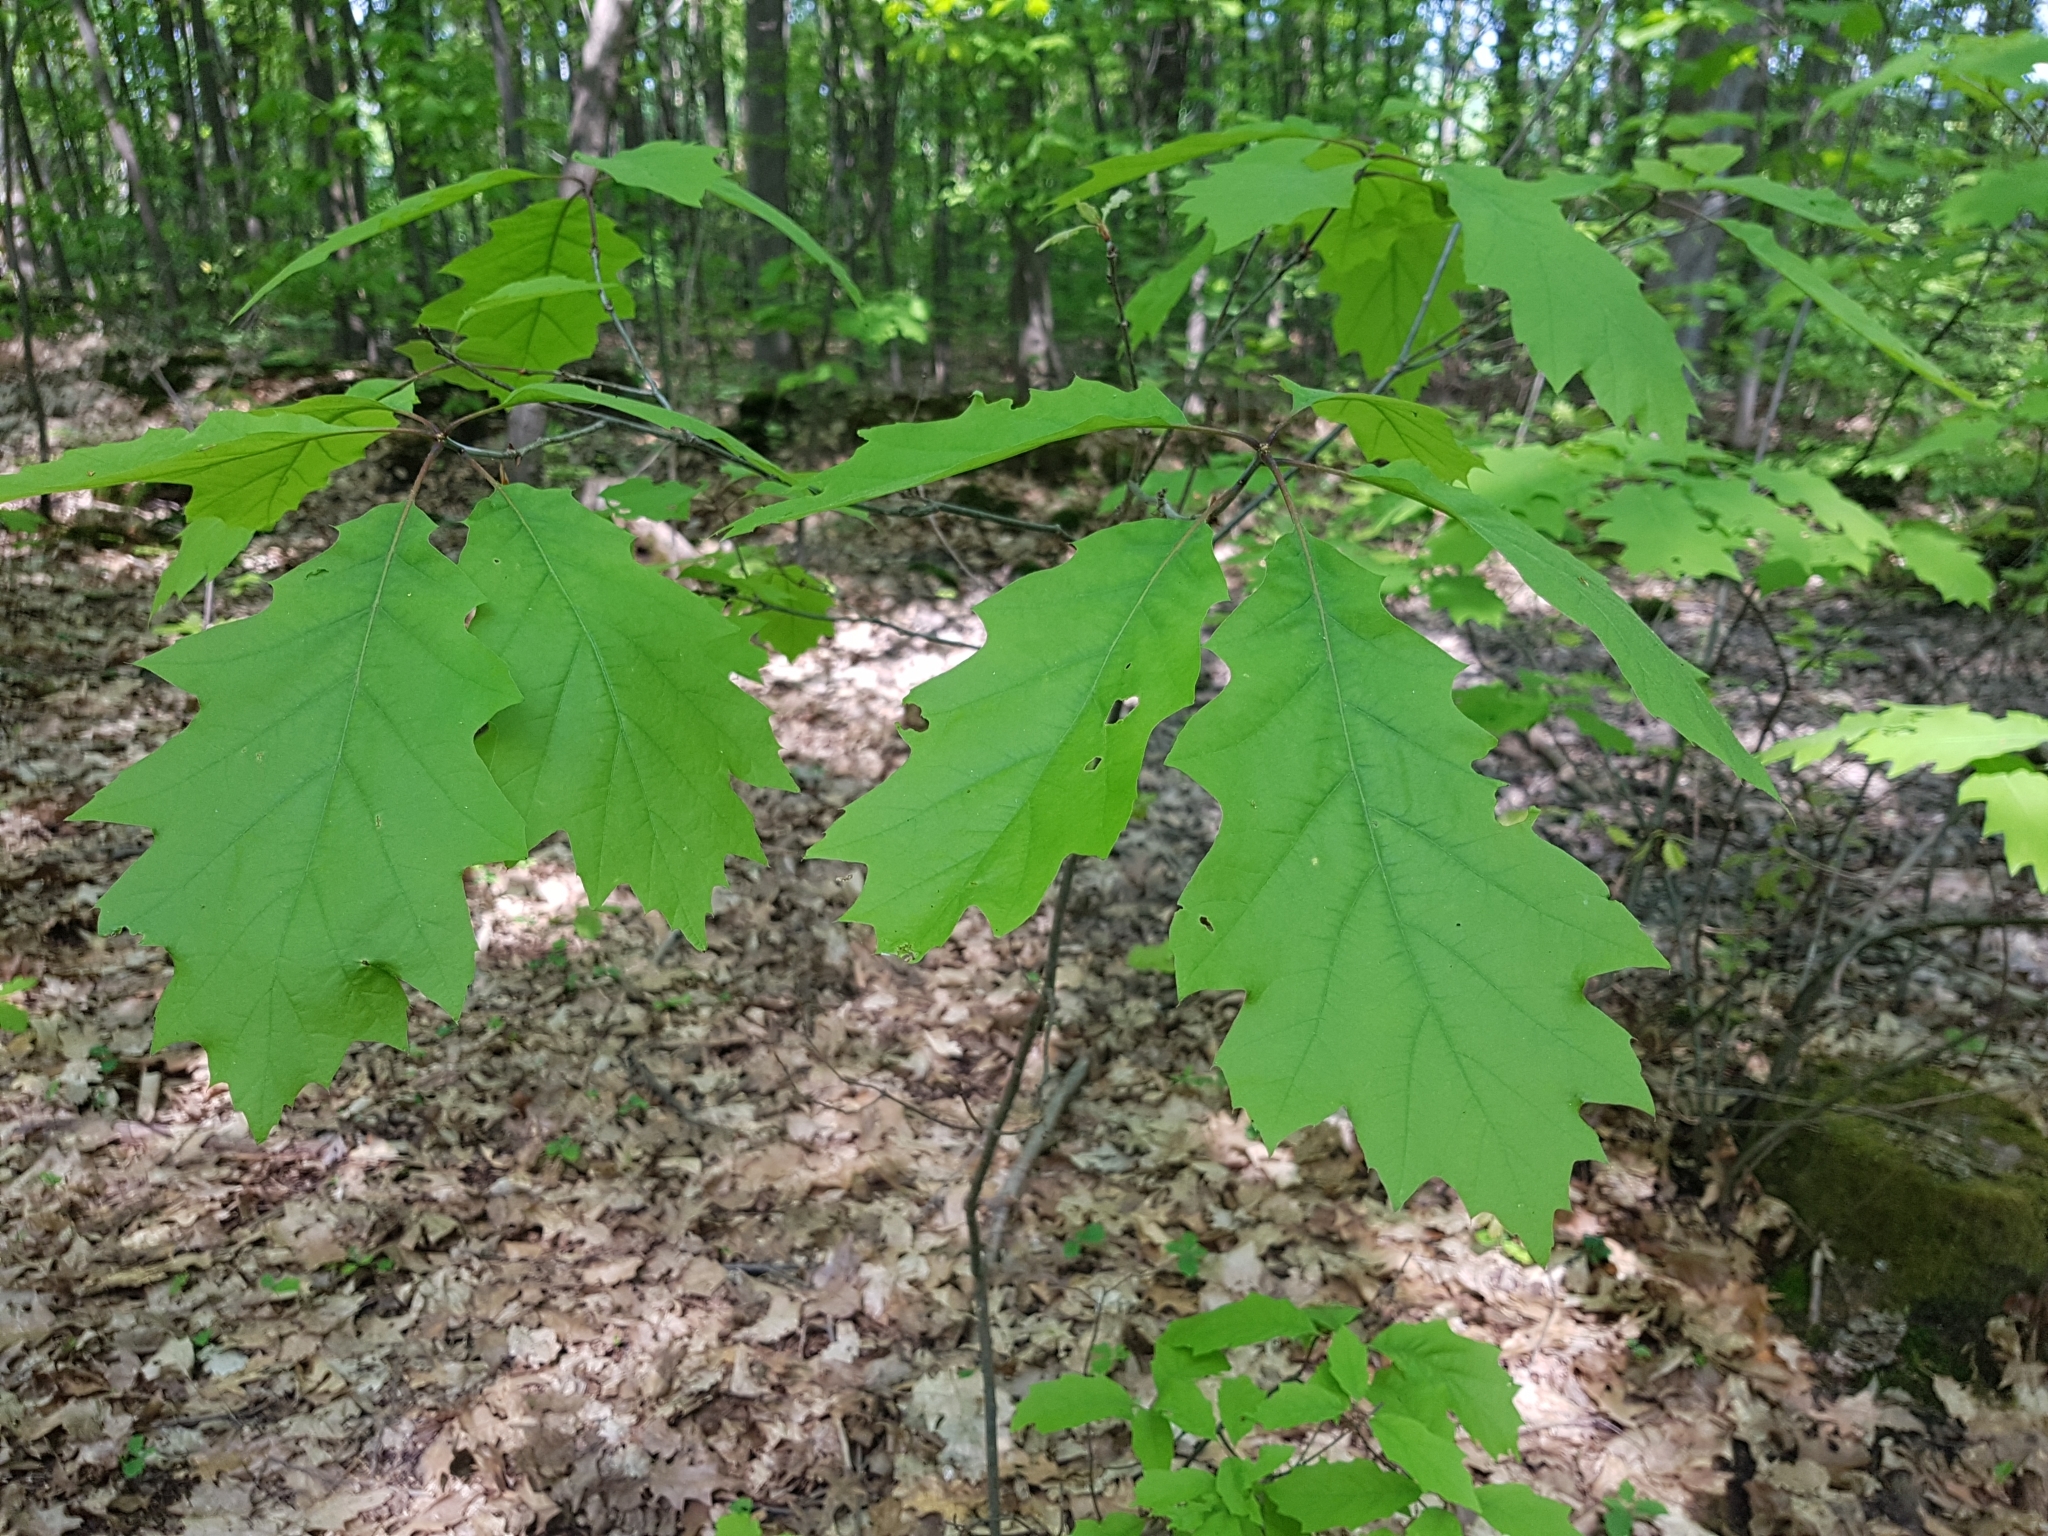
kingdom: Plantae
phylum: Tracheophyta
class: Magnoliopsida
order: Fagales
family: Fagaceae
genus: Quercus
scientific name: Quercus rubra
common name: Red oak
